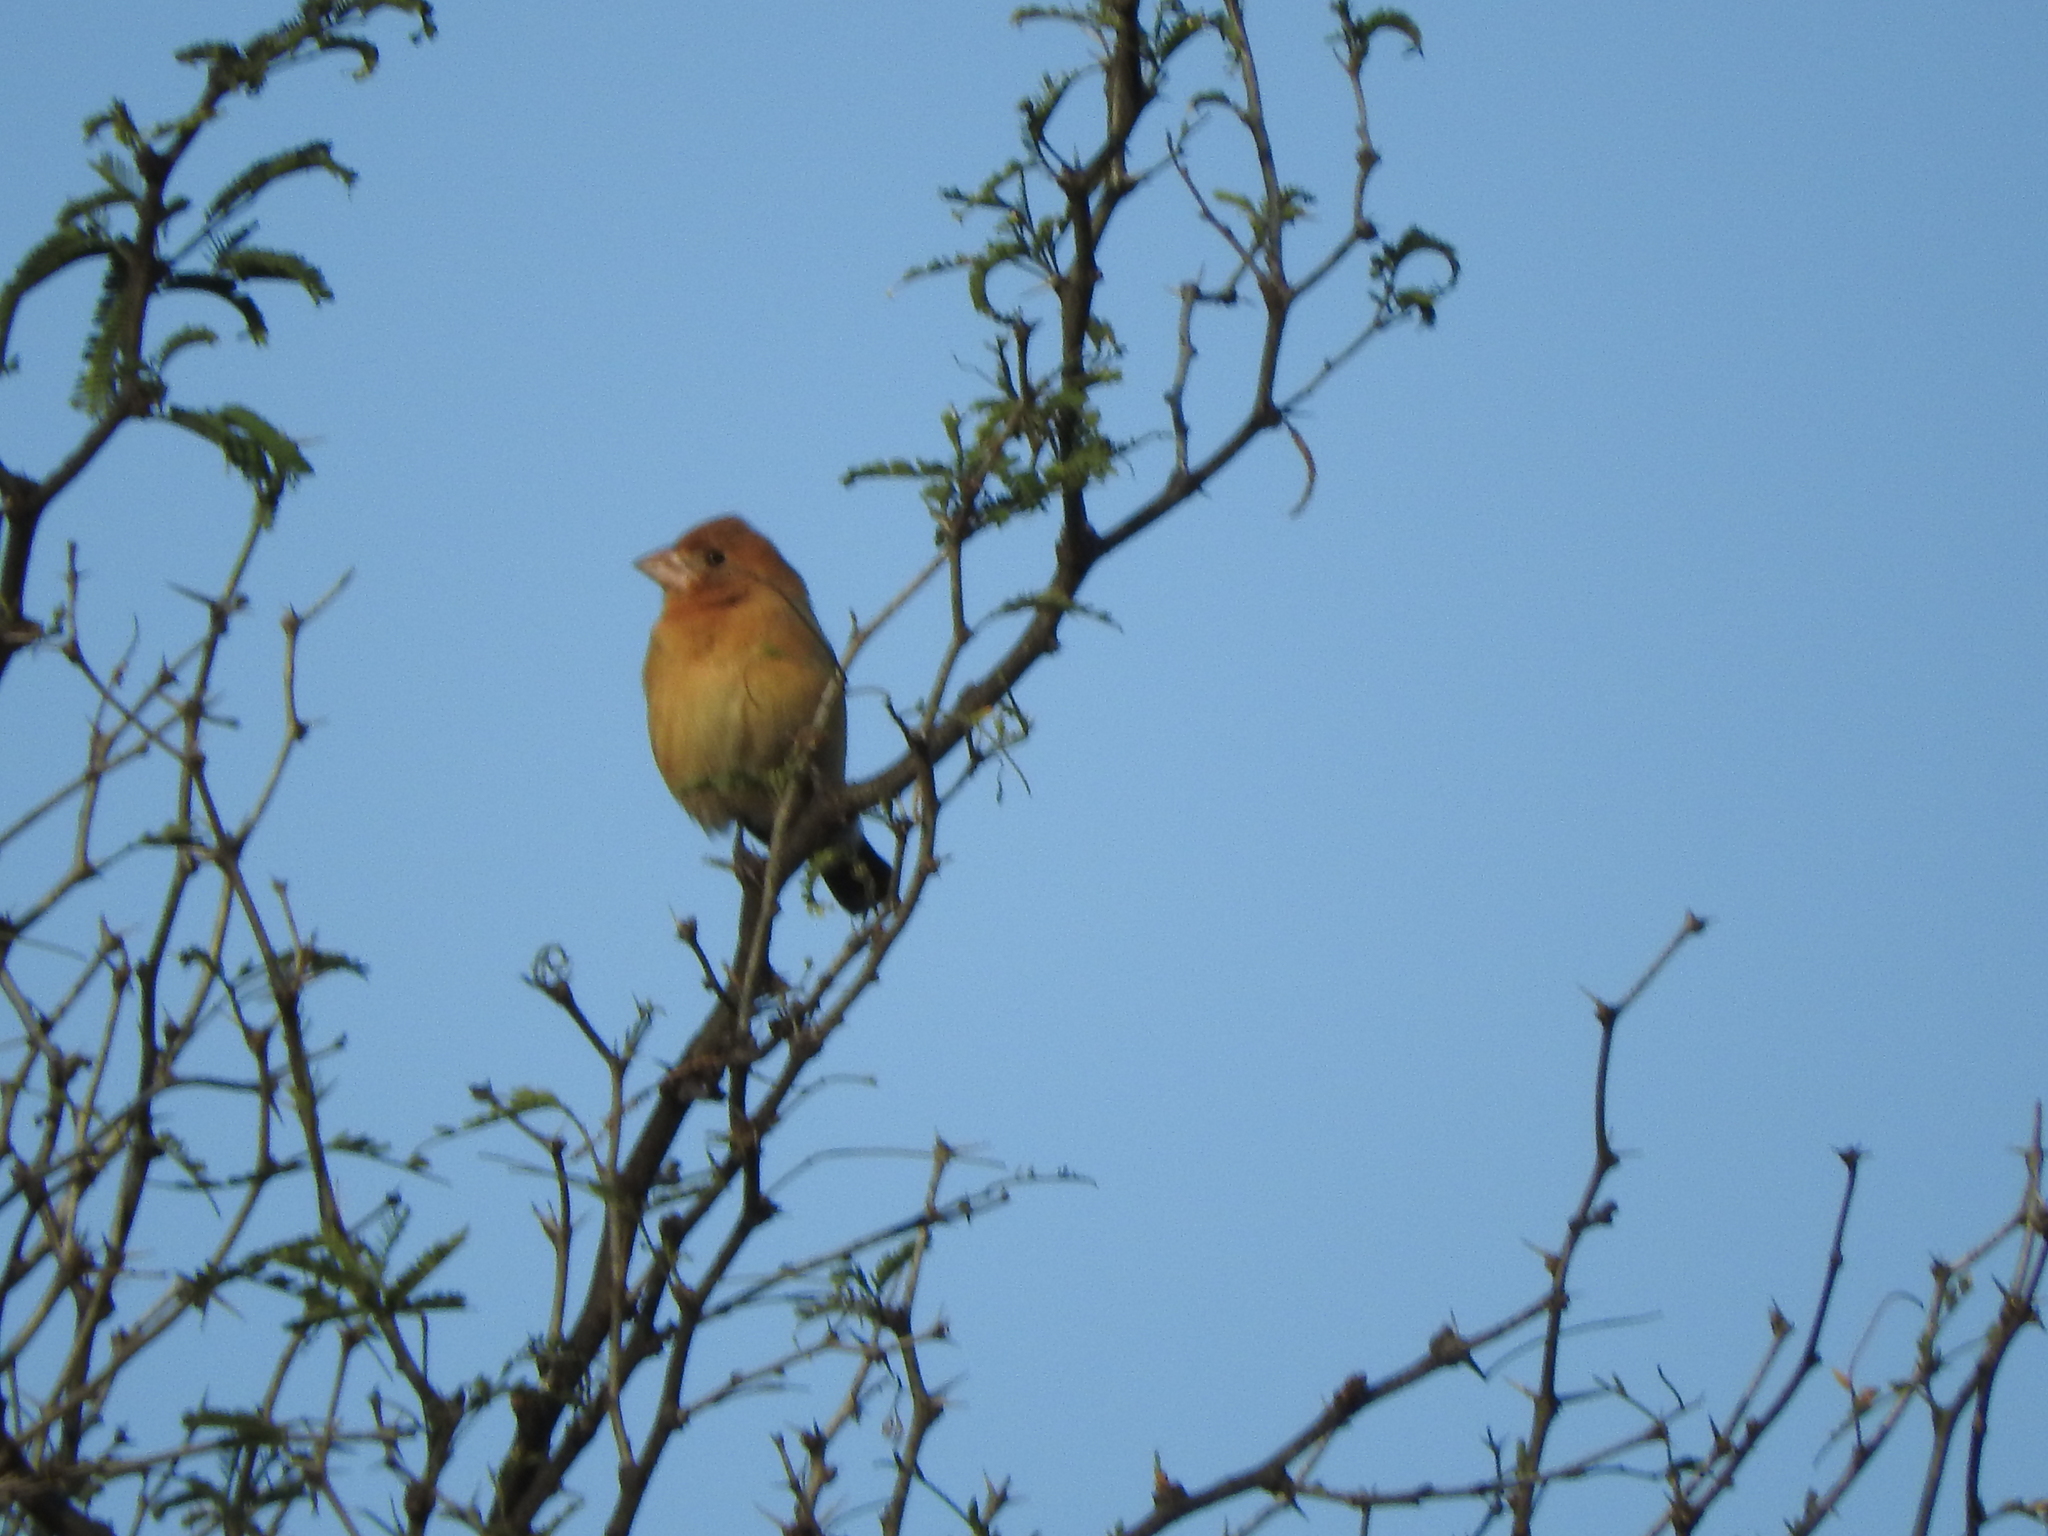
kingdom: Animalia
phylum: Chordata
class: Aves
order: Passeriformes
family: Cardinalidae
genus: Passerina
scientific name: Passerina caerulea
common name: Blue grosbeak
